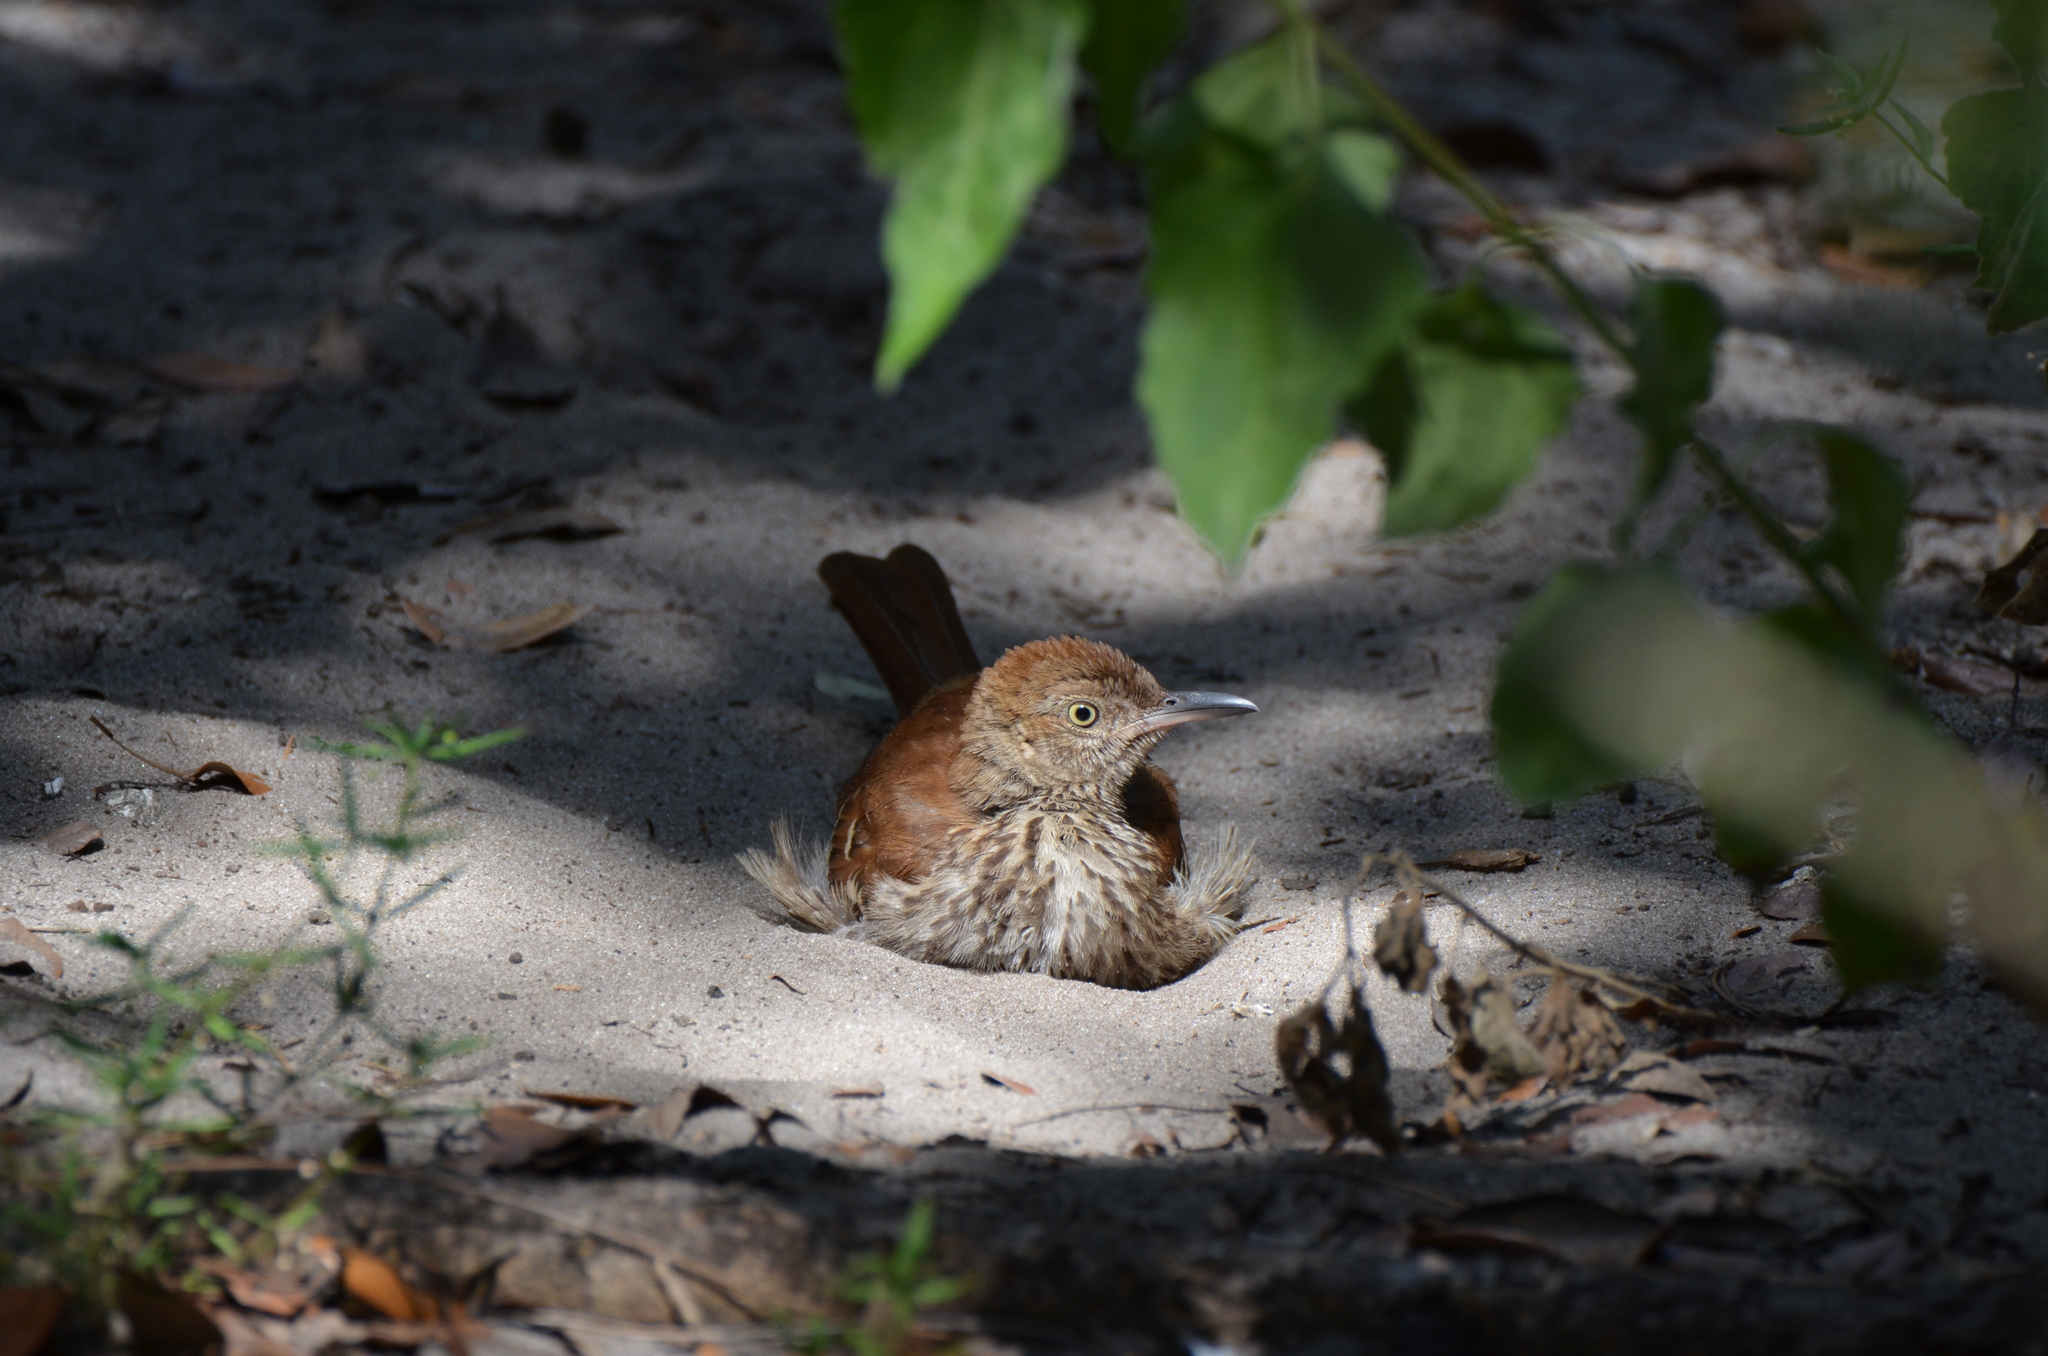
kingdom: Animalia
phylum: Chordata
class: Aves
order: Passeriformes
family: Mimidae
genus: Toxostoma
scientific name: Toxostoma rufum
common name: Brown thrasher
